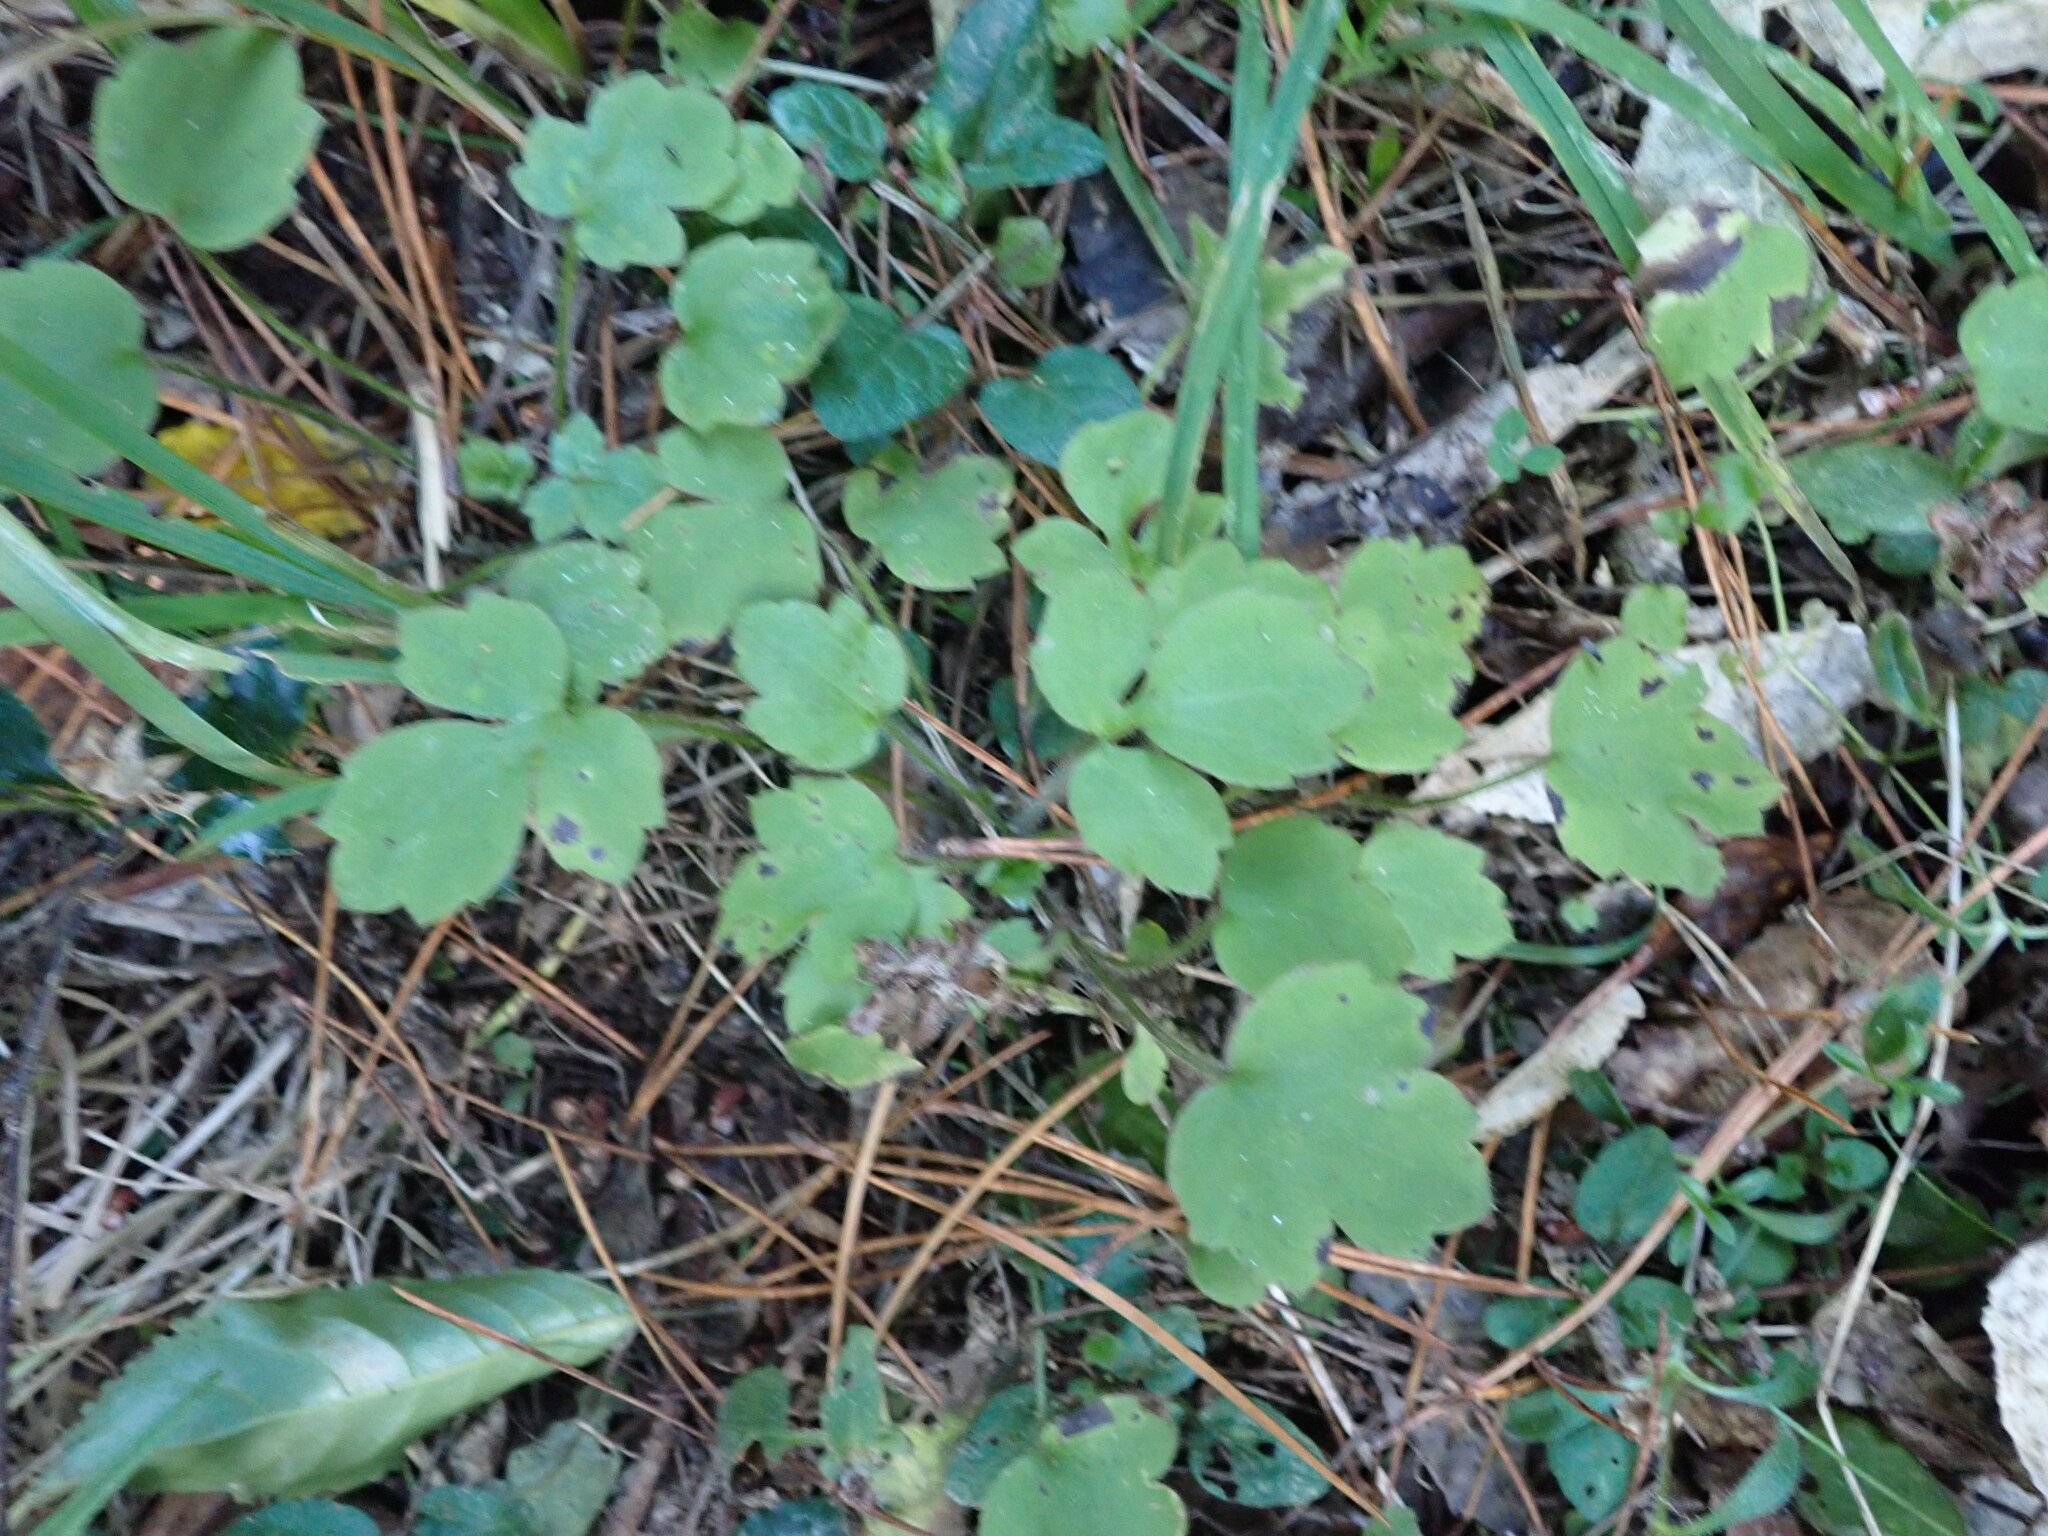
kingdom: Plantae
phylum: Tracheophyta
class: Magnoliopsida
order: Ranunculales
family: Ranunculaceae
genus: Ranunculus
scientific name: Ranunculus reflexus
